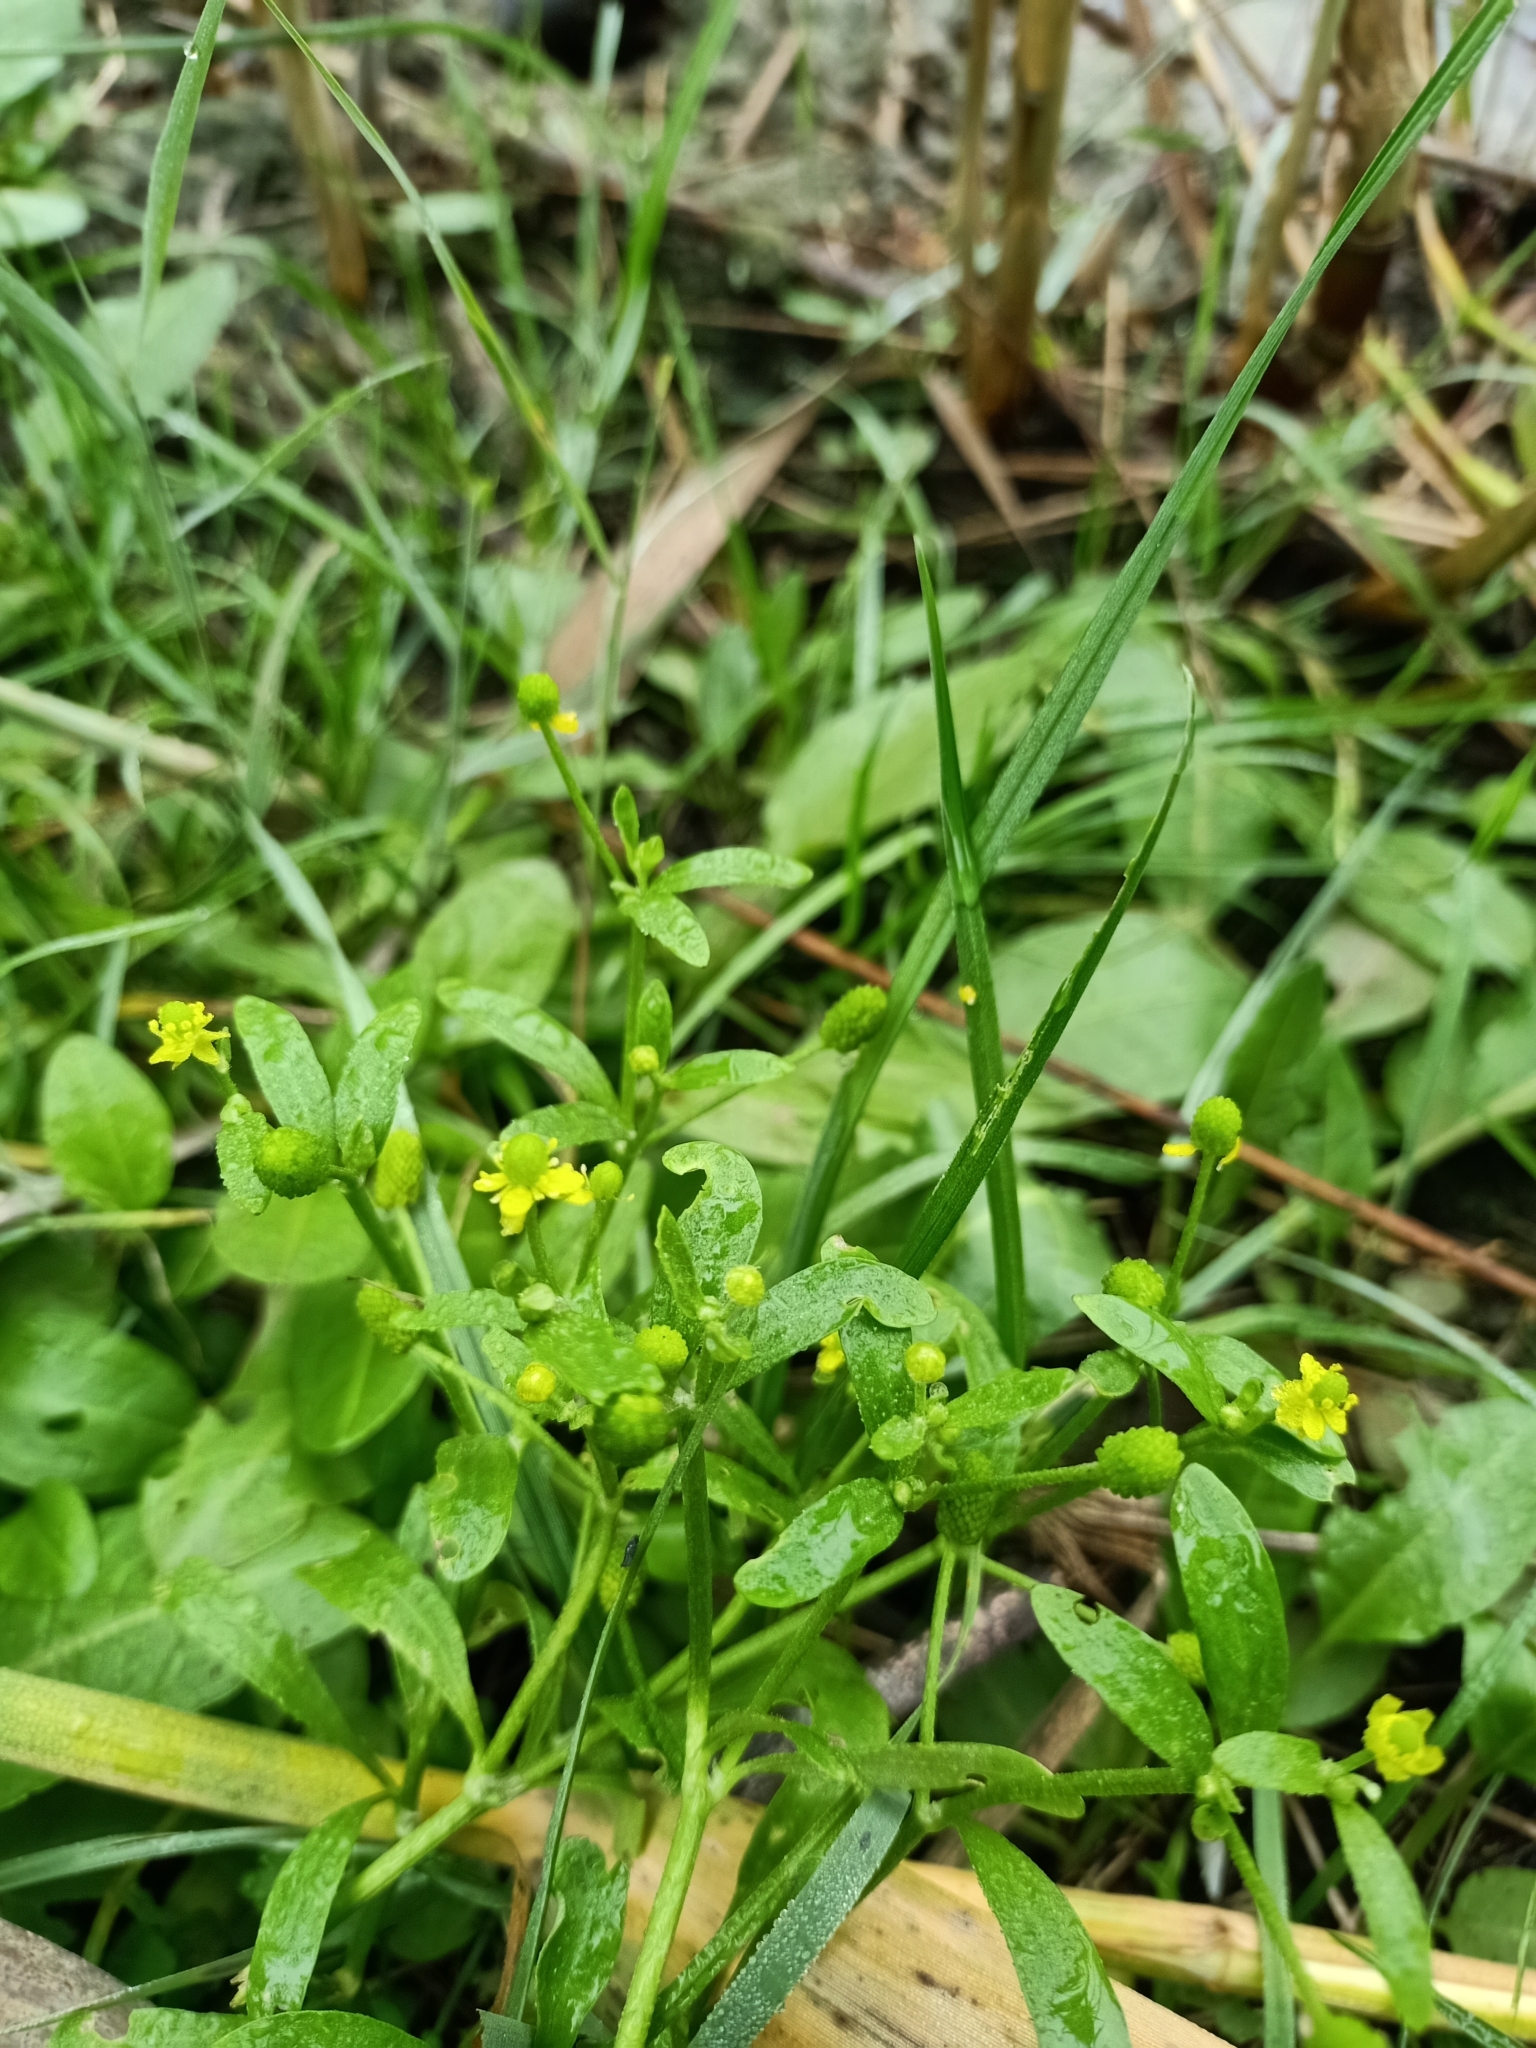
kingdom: Plantae
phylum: Tracheophyta
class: Magnoliopsida
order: Ranunculales
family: Ranunculaceae
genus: Ranunculus
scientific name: Ranunculus sceleratus
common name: Celery-leaved buttercup
